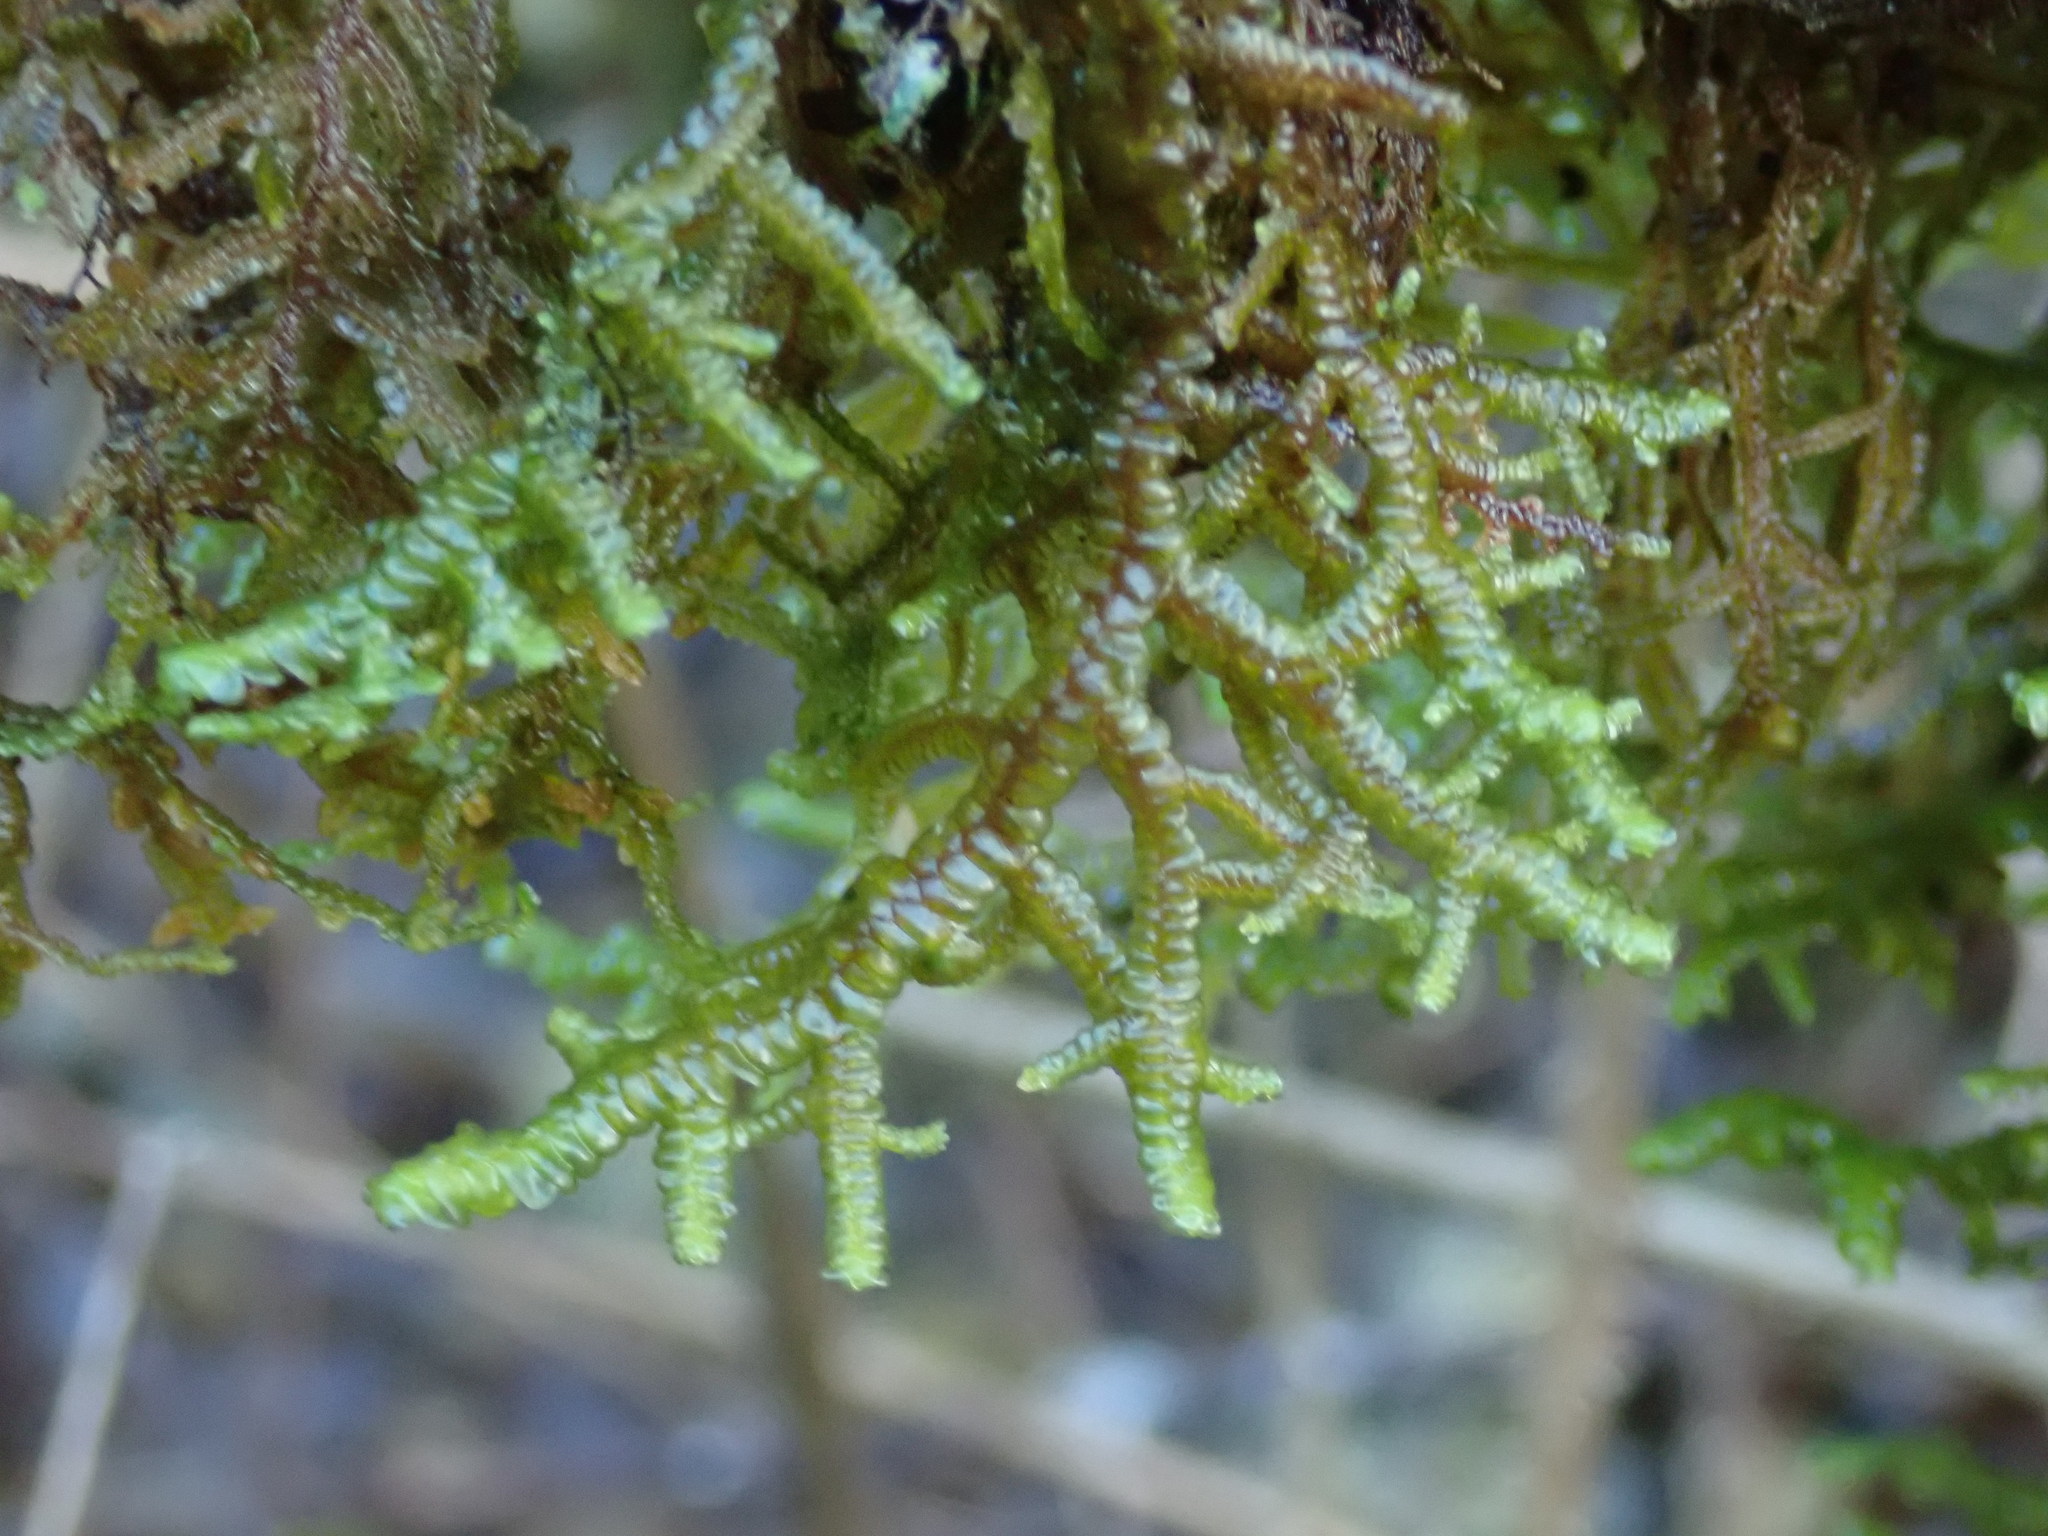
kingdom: Plantae
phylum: Marchantiophyta
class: Jungermanniopsida
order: Porellales
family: Porellaceae
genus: Porella
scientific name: Porella navicularis
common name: Tree ruffle liverwort
